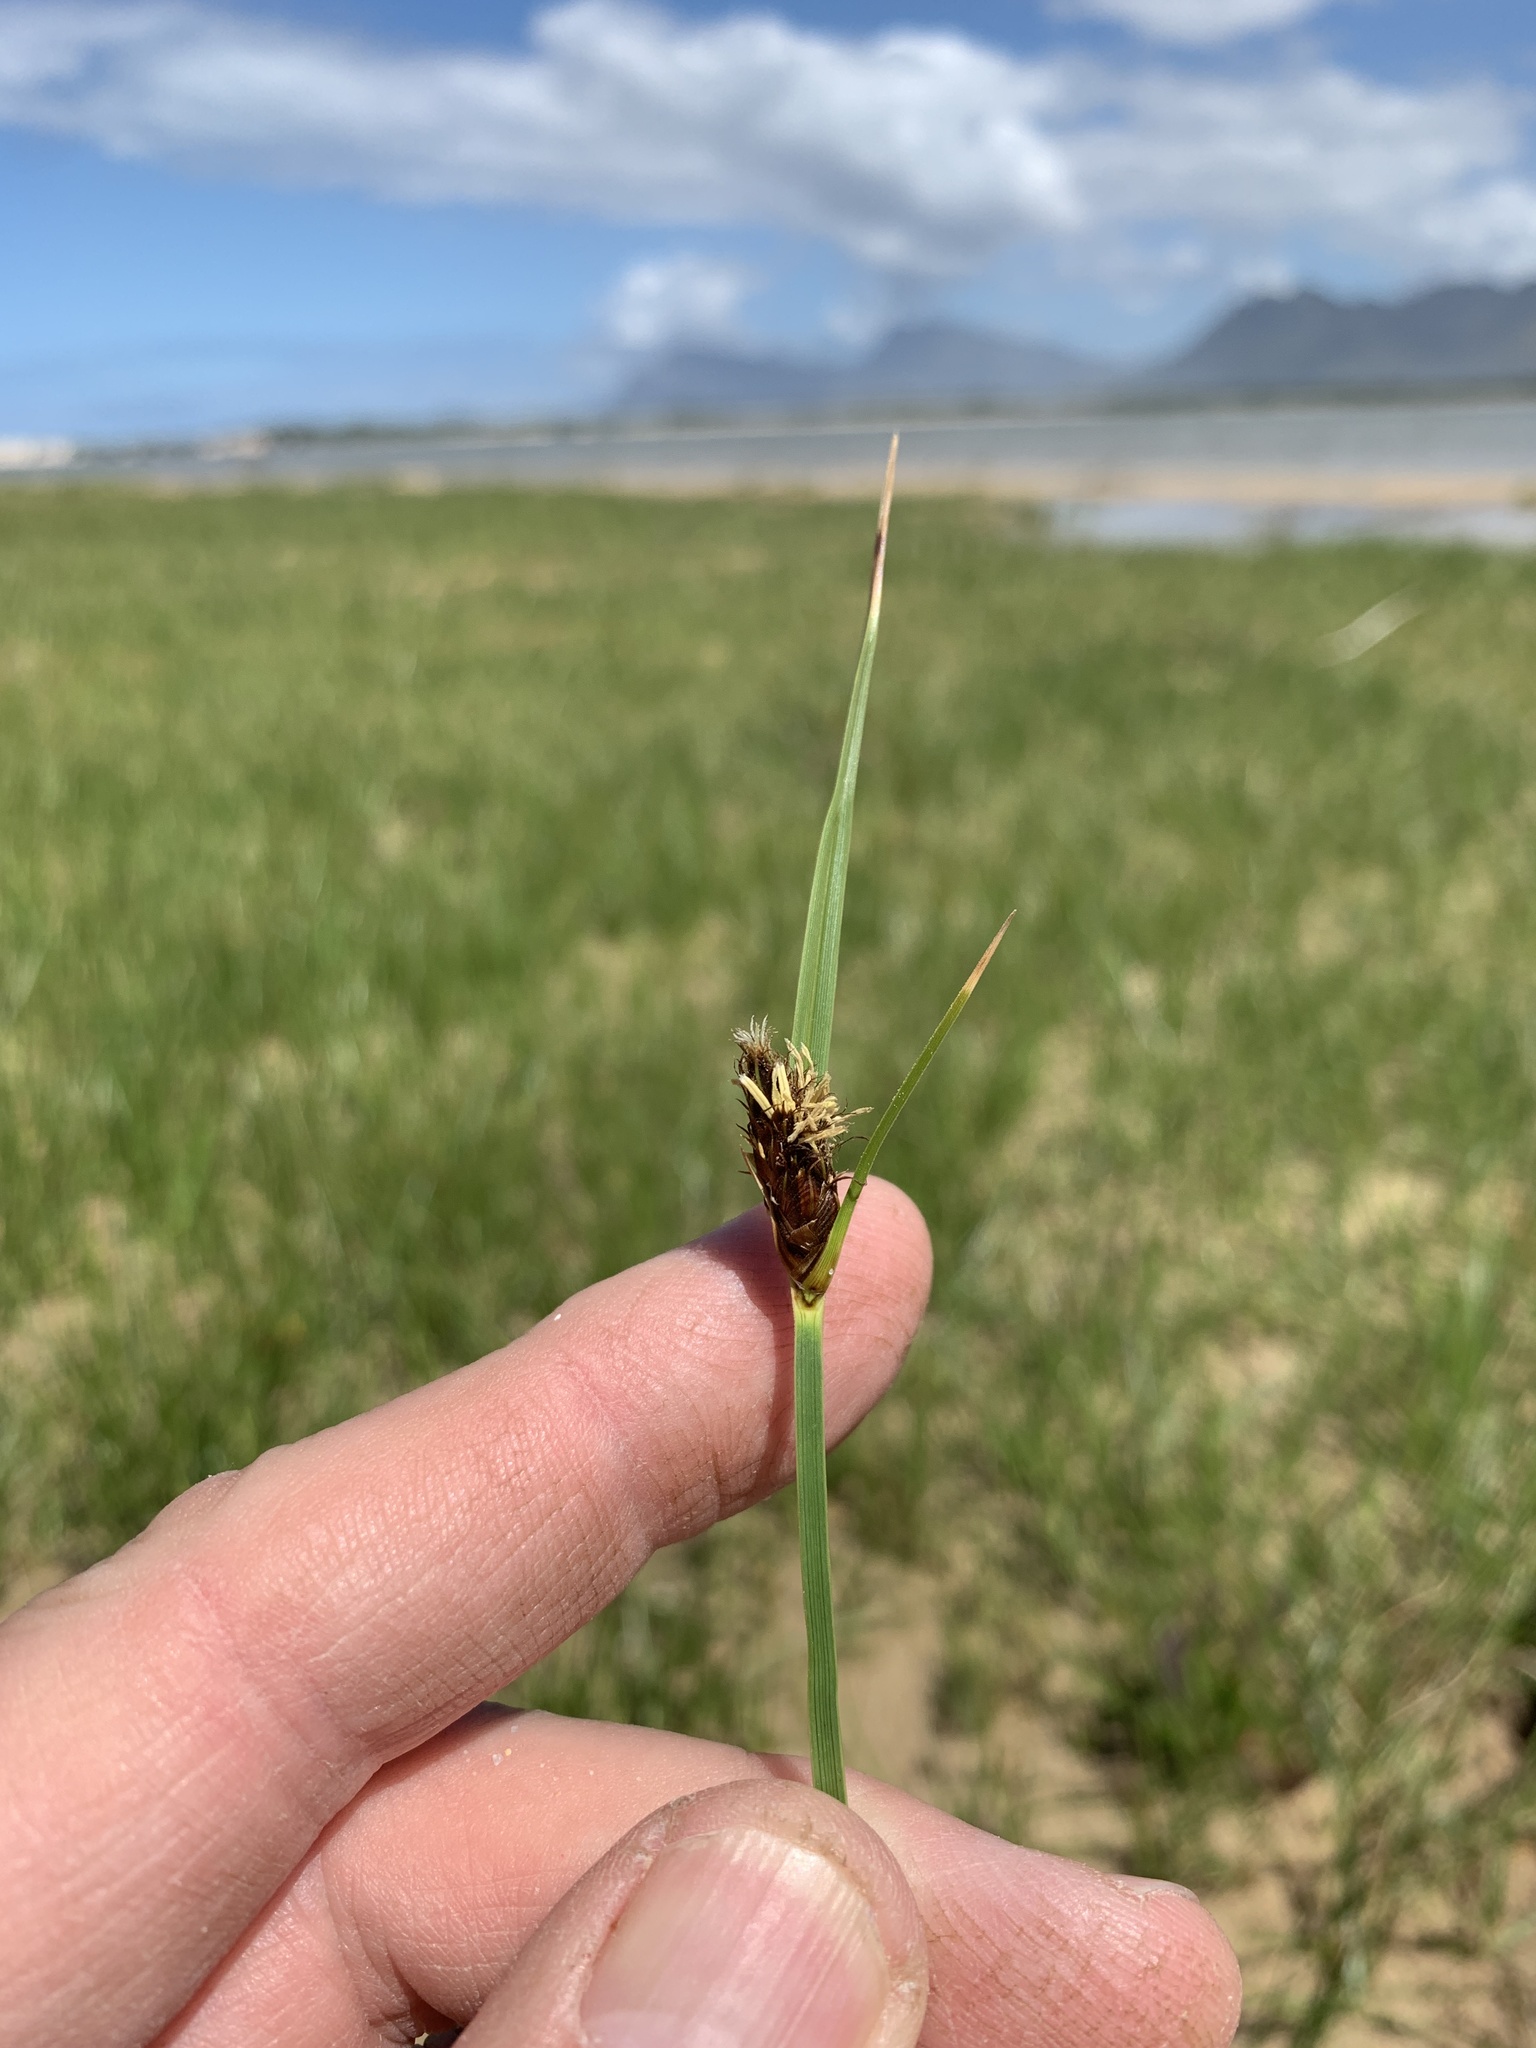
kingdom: Plantae
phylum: Tracheophyta
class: Liliopsida
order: Poales
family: Cyperaceae
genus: Bolboschoenus
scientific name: Bolboschoenus maritimus
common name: Sea club-rush
